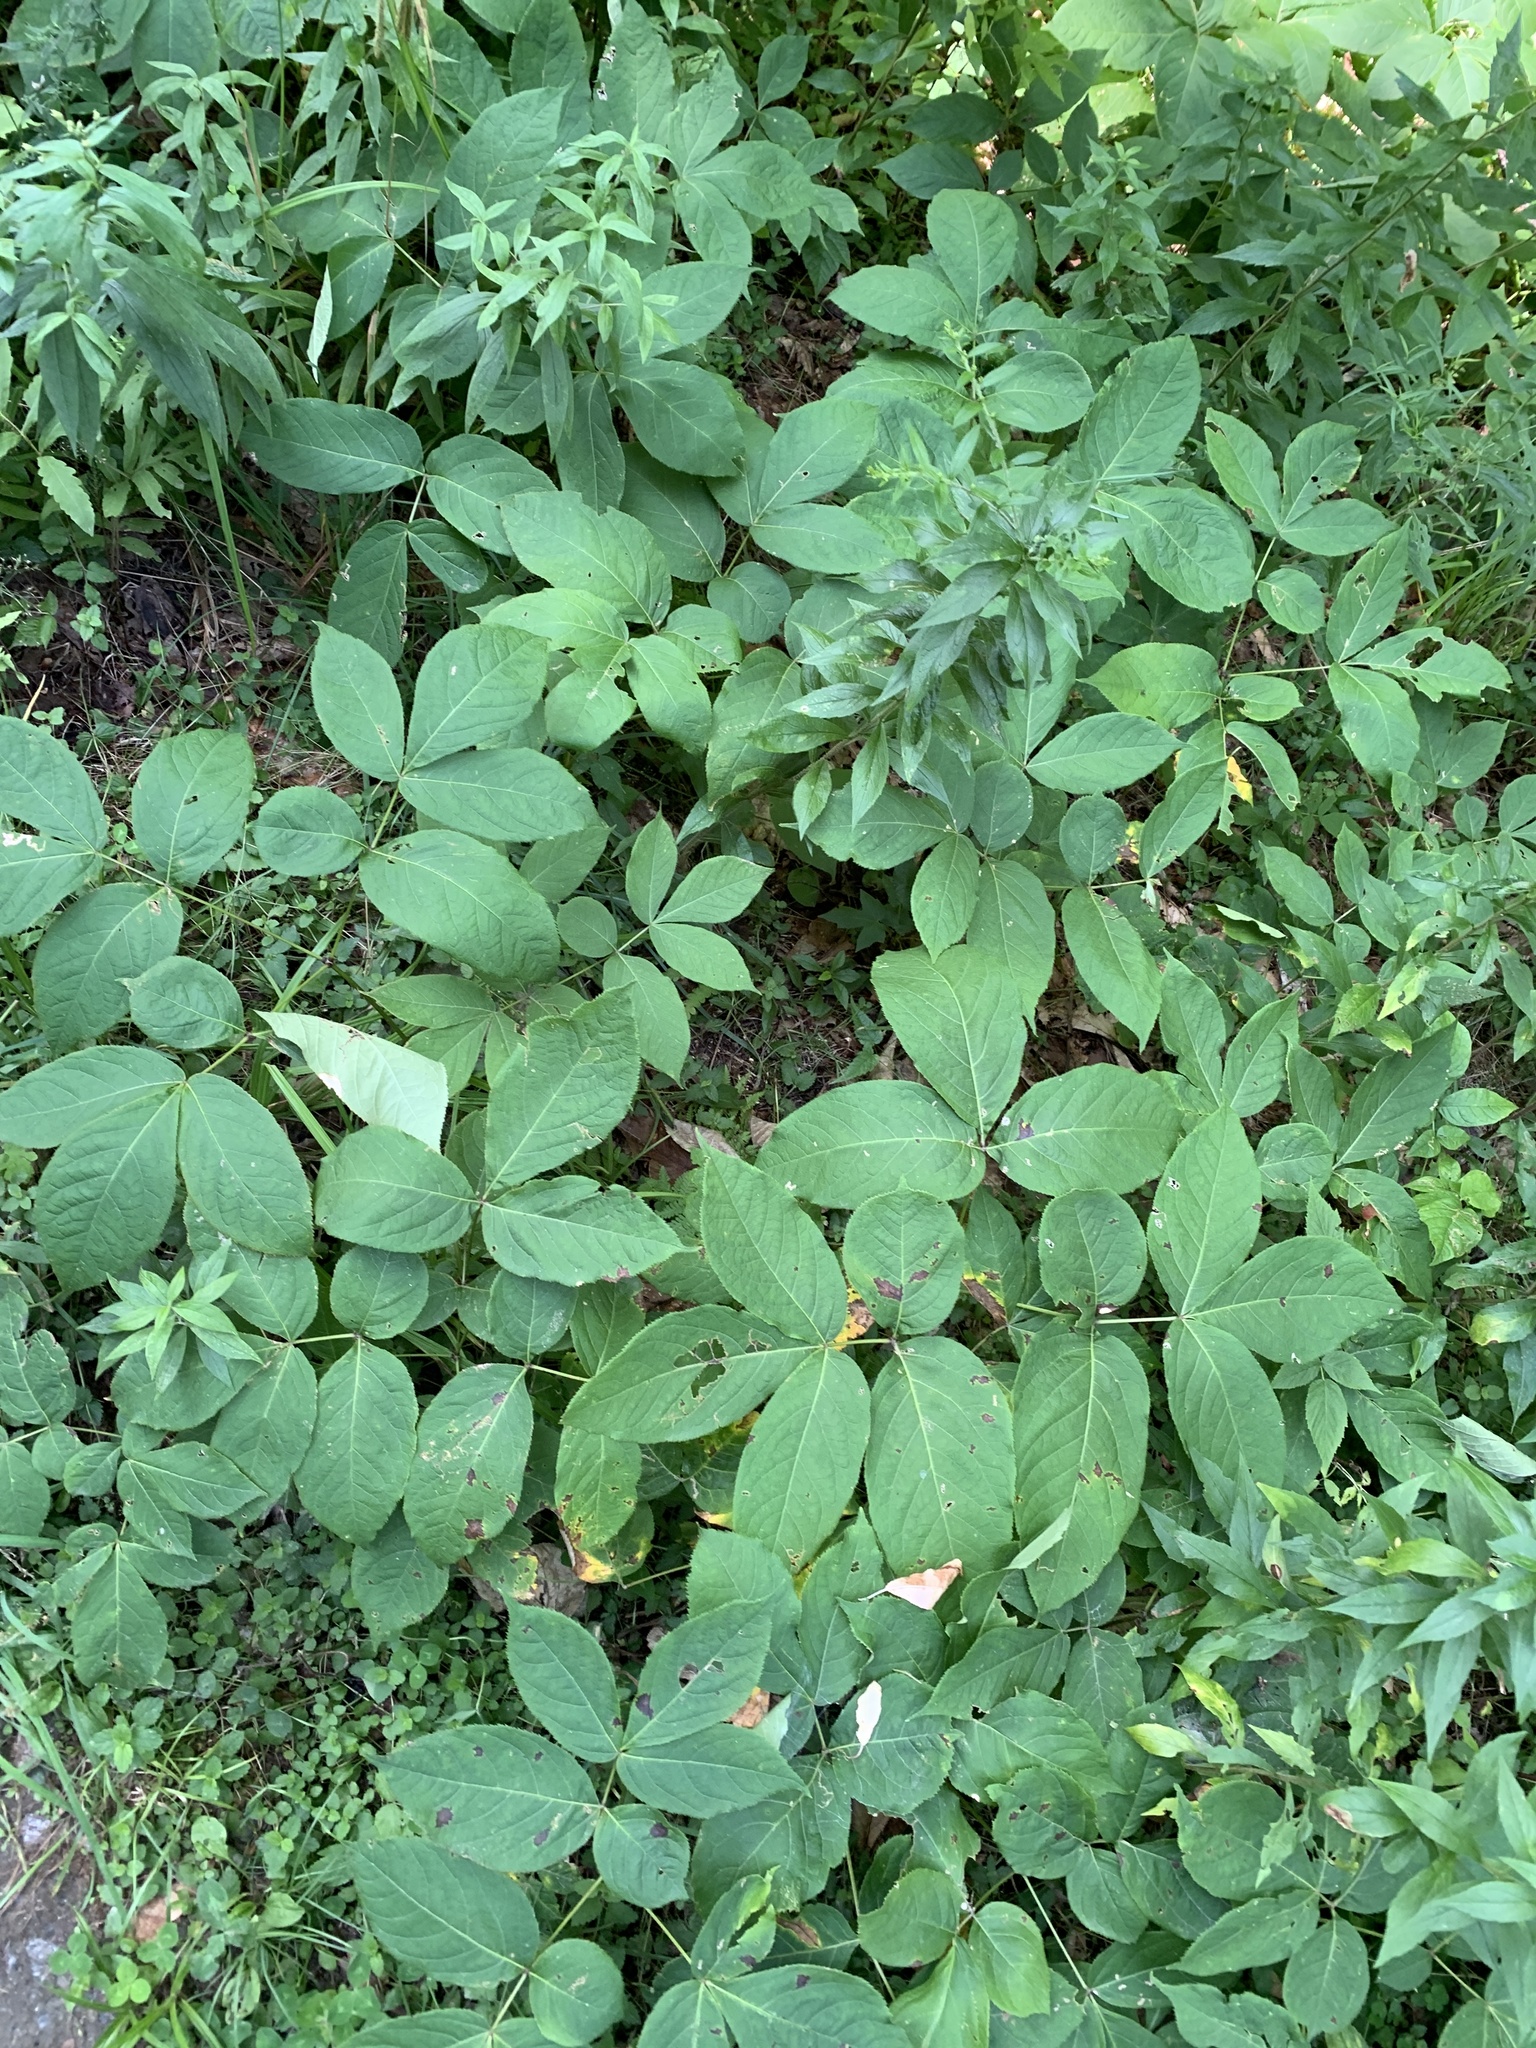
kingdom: Plantae
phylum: Tracheophyta
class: Magnoliopsida
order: Apiales
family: Araliaceae
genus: Aralia
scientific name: Aralia nudicaulis
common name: Wild sarsaparilla
